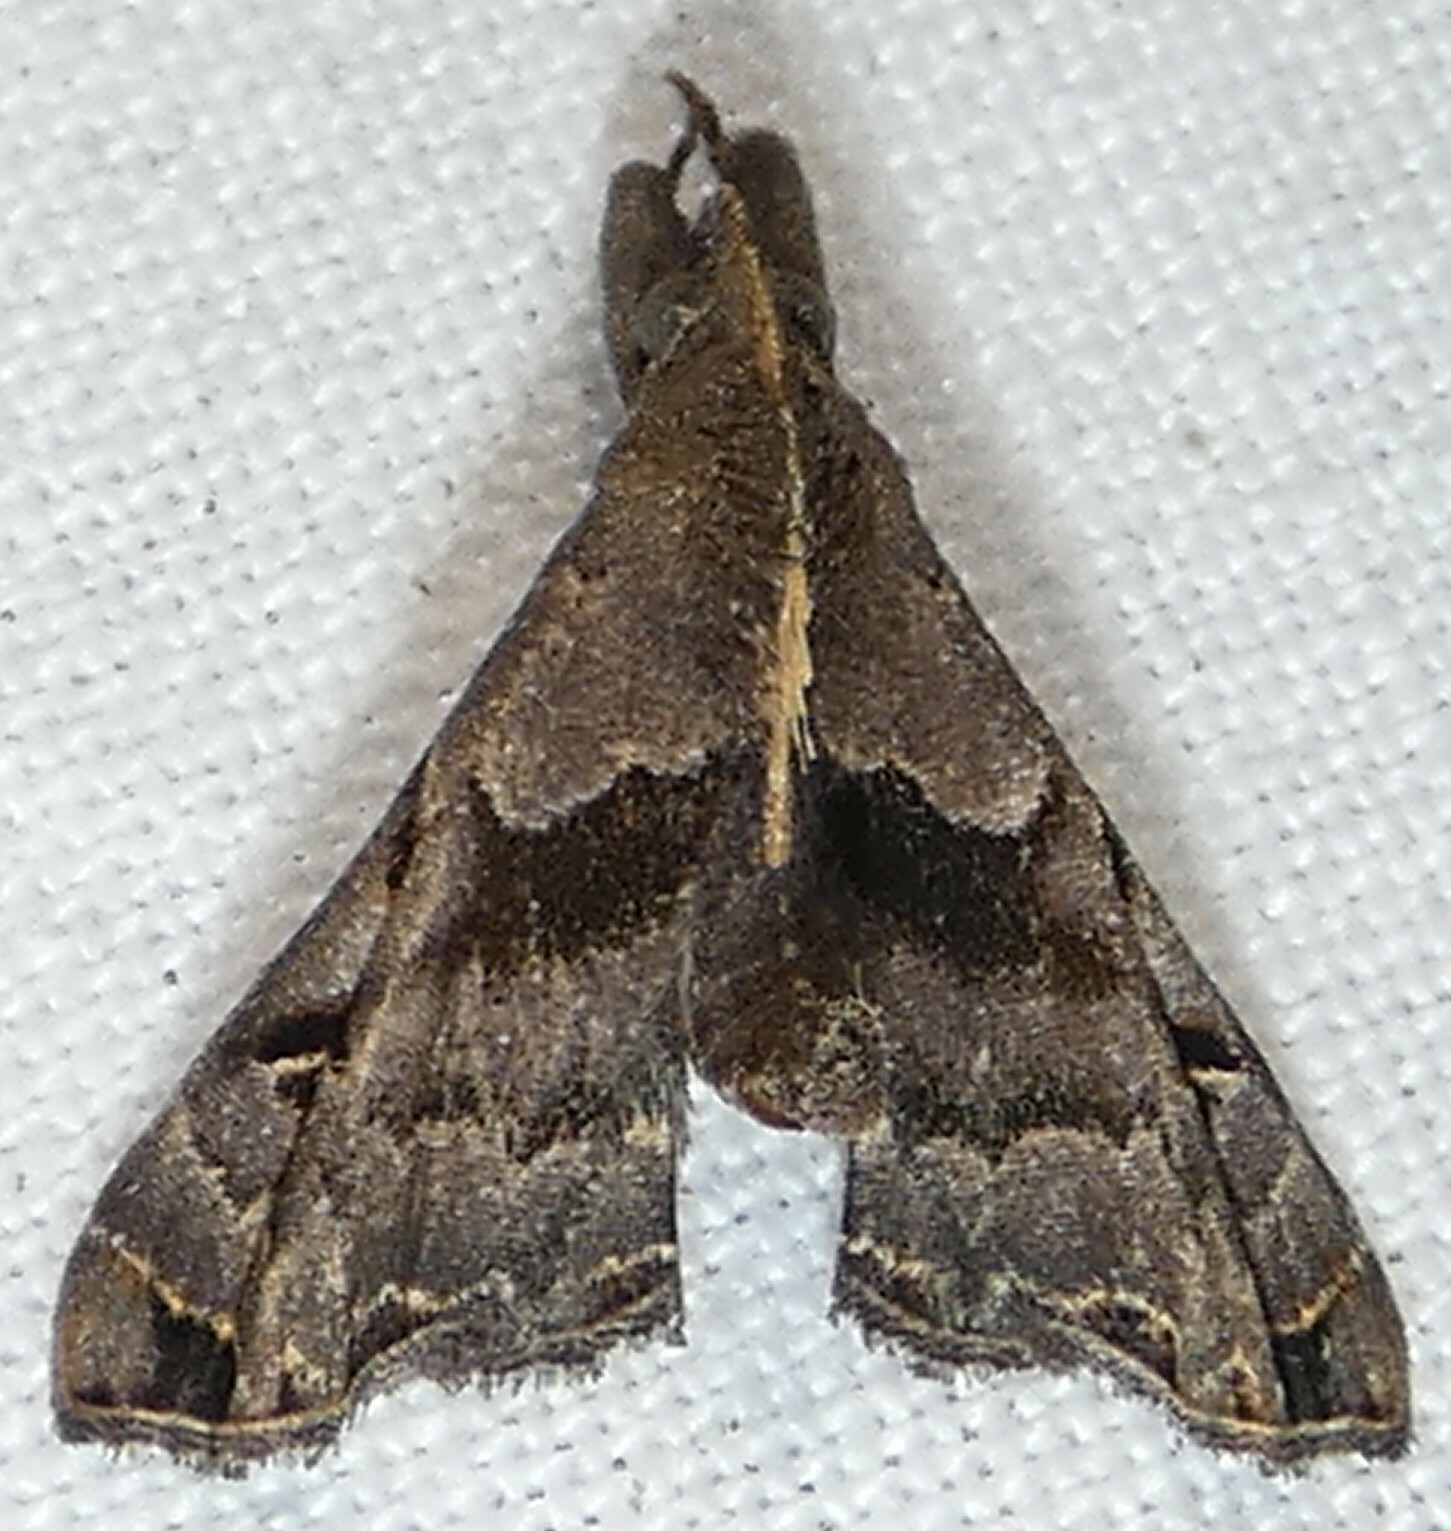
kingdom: Animalia
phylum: Arthropoda
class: Insecta
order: Lepidoptera
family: Erebidae
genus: Palthis
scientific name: Palthis asopialis
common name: Faint-spotted palthis moth
